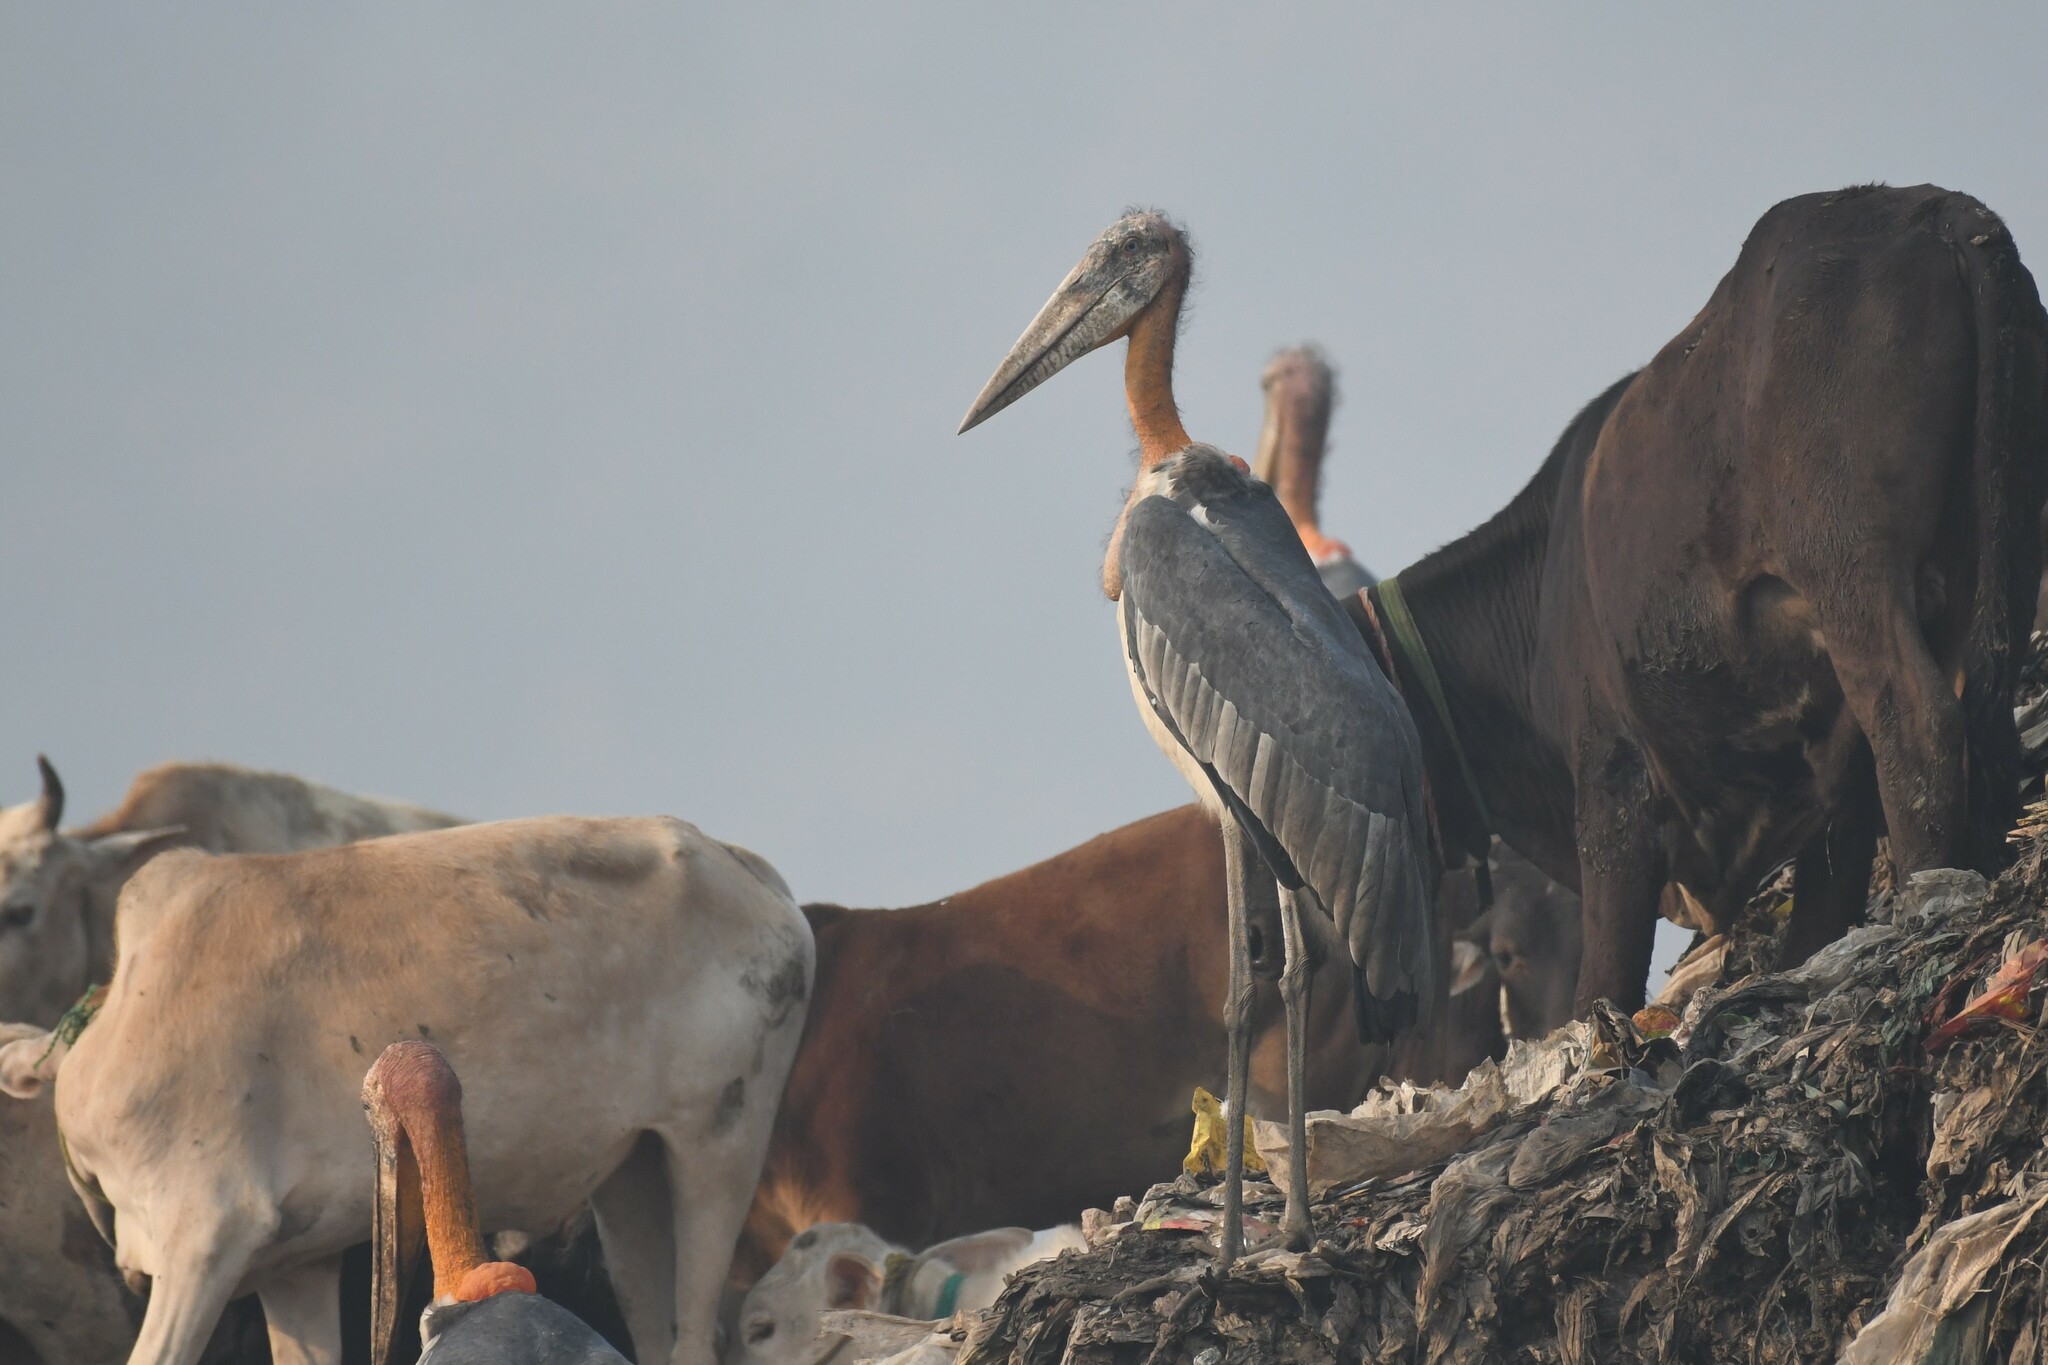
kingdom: Animalia
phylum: Chordata
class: Aves
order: Ciconiiformes
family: Ciconiidae
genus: Leptoptilos
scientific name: Leptoptilos dubius
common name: Greater adjutant
